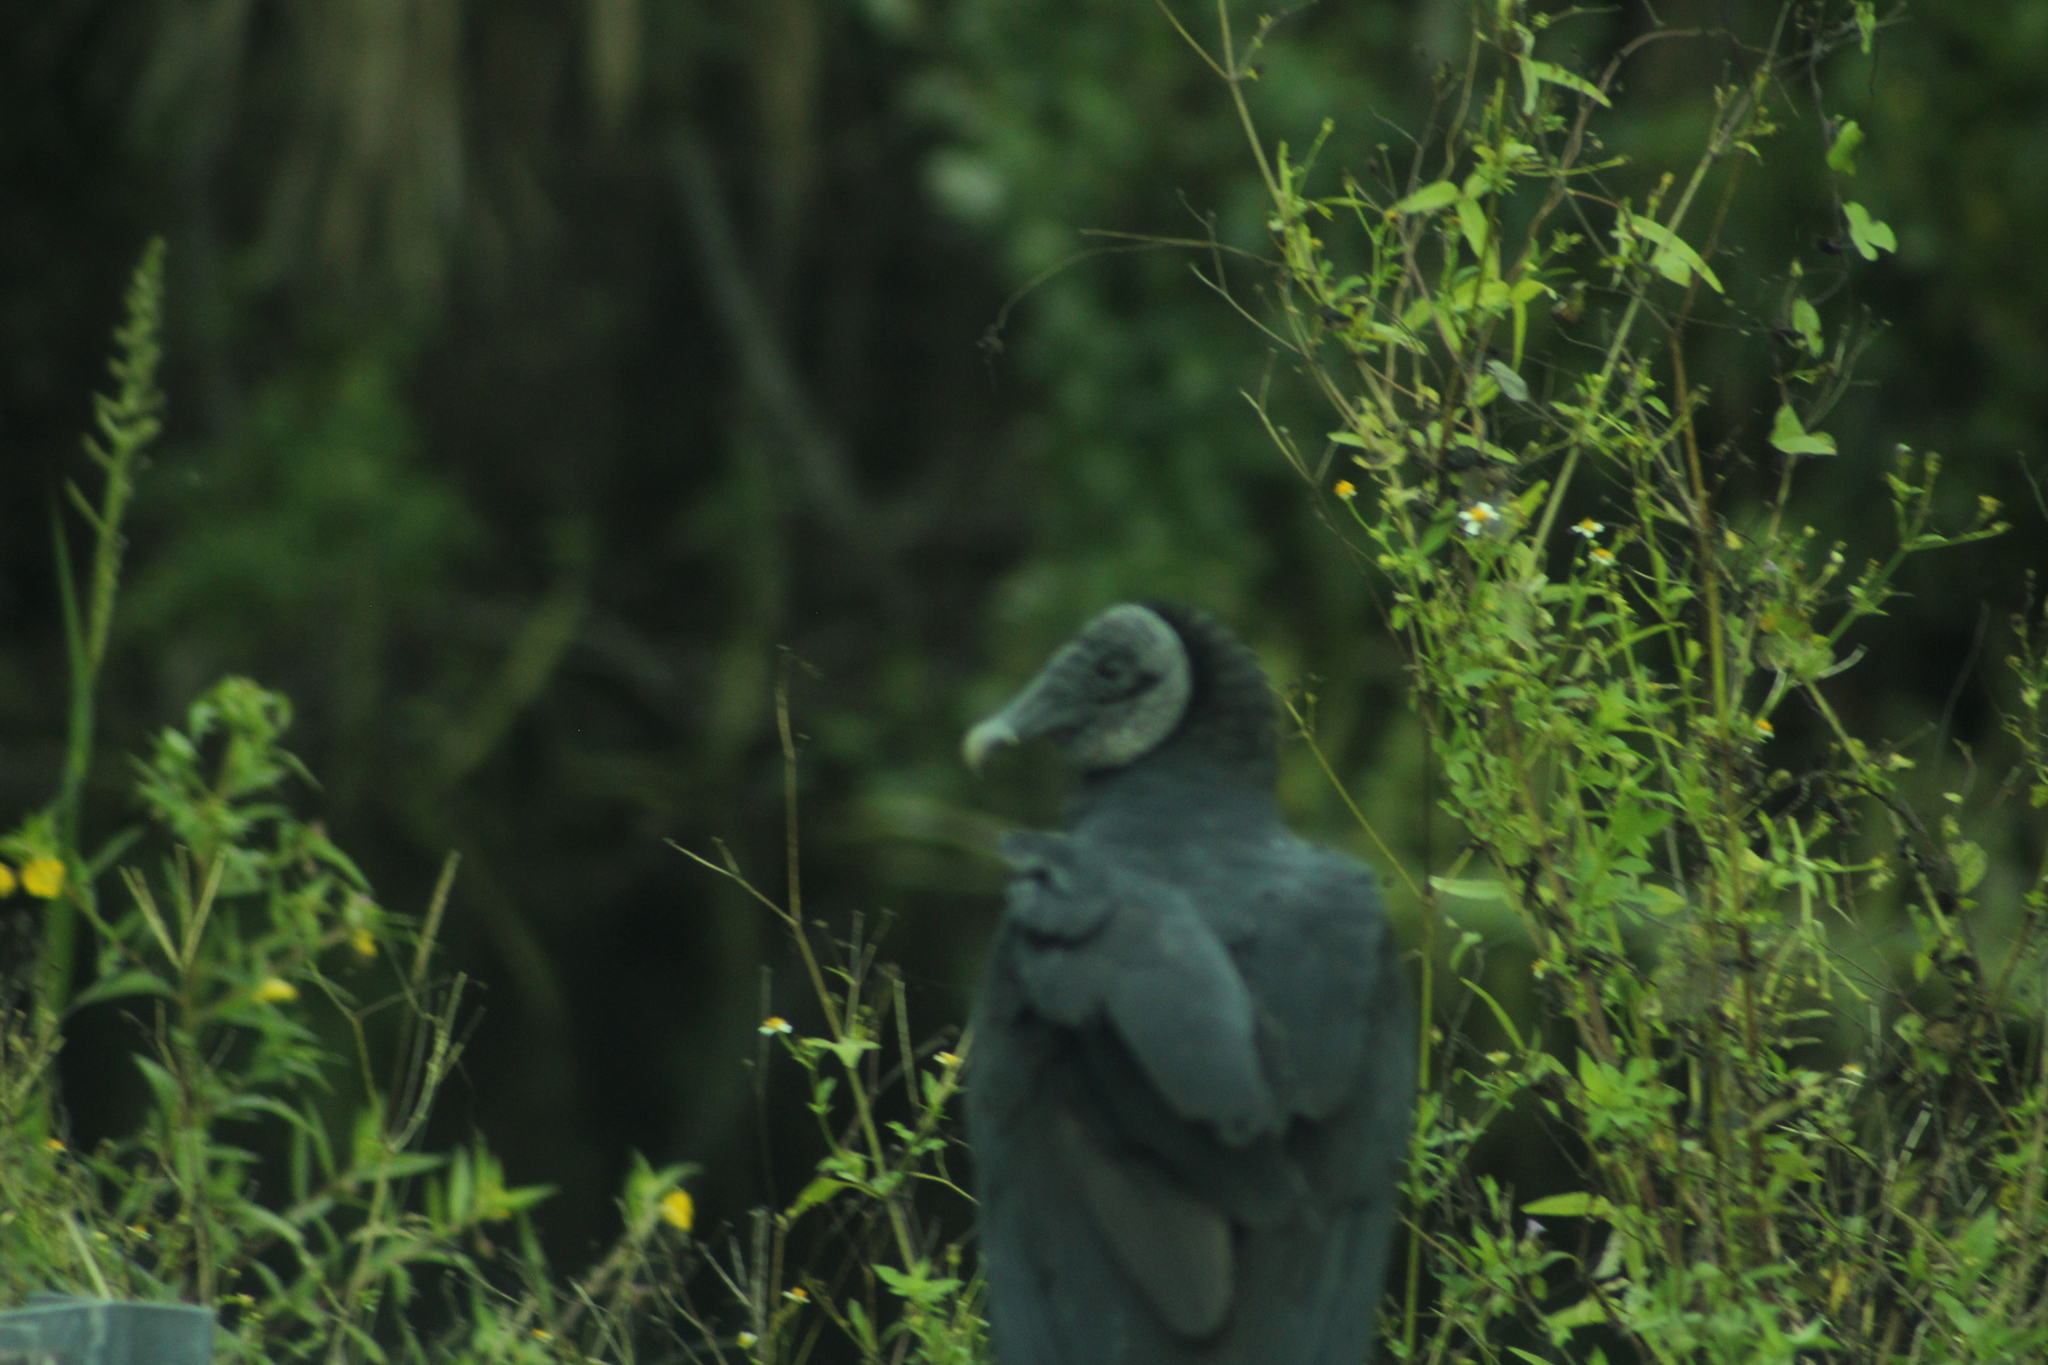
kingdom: Animalia
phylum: Chordata
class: Aves
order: Accipitriformes
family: Cathartidae
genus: Coragyps
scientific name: Coragyps atratus
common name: Black vulture
